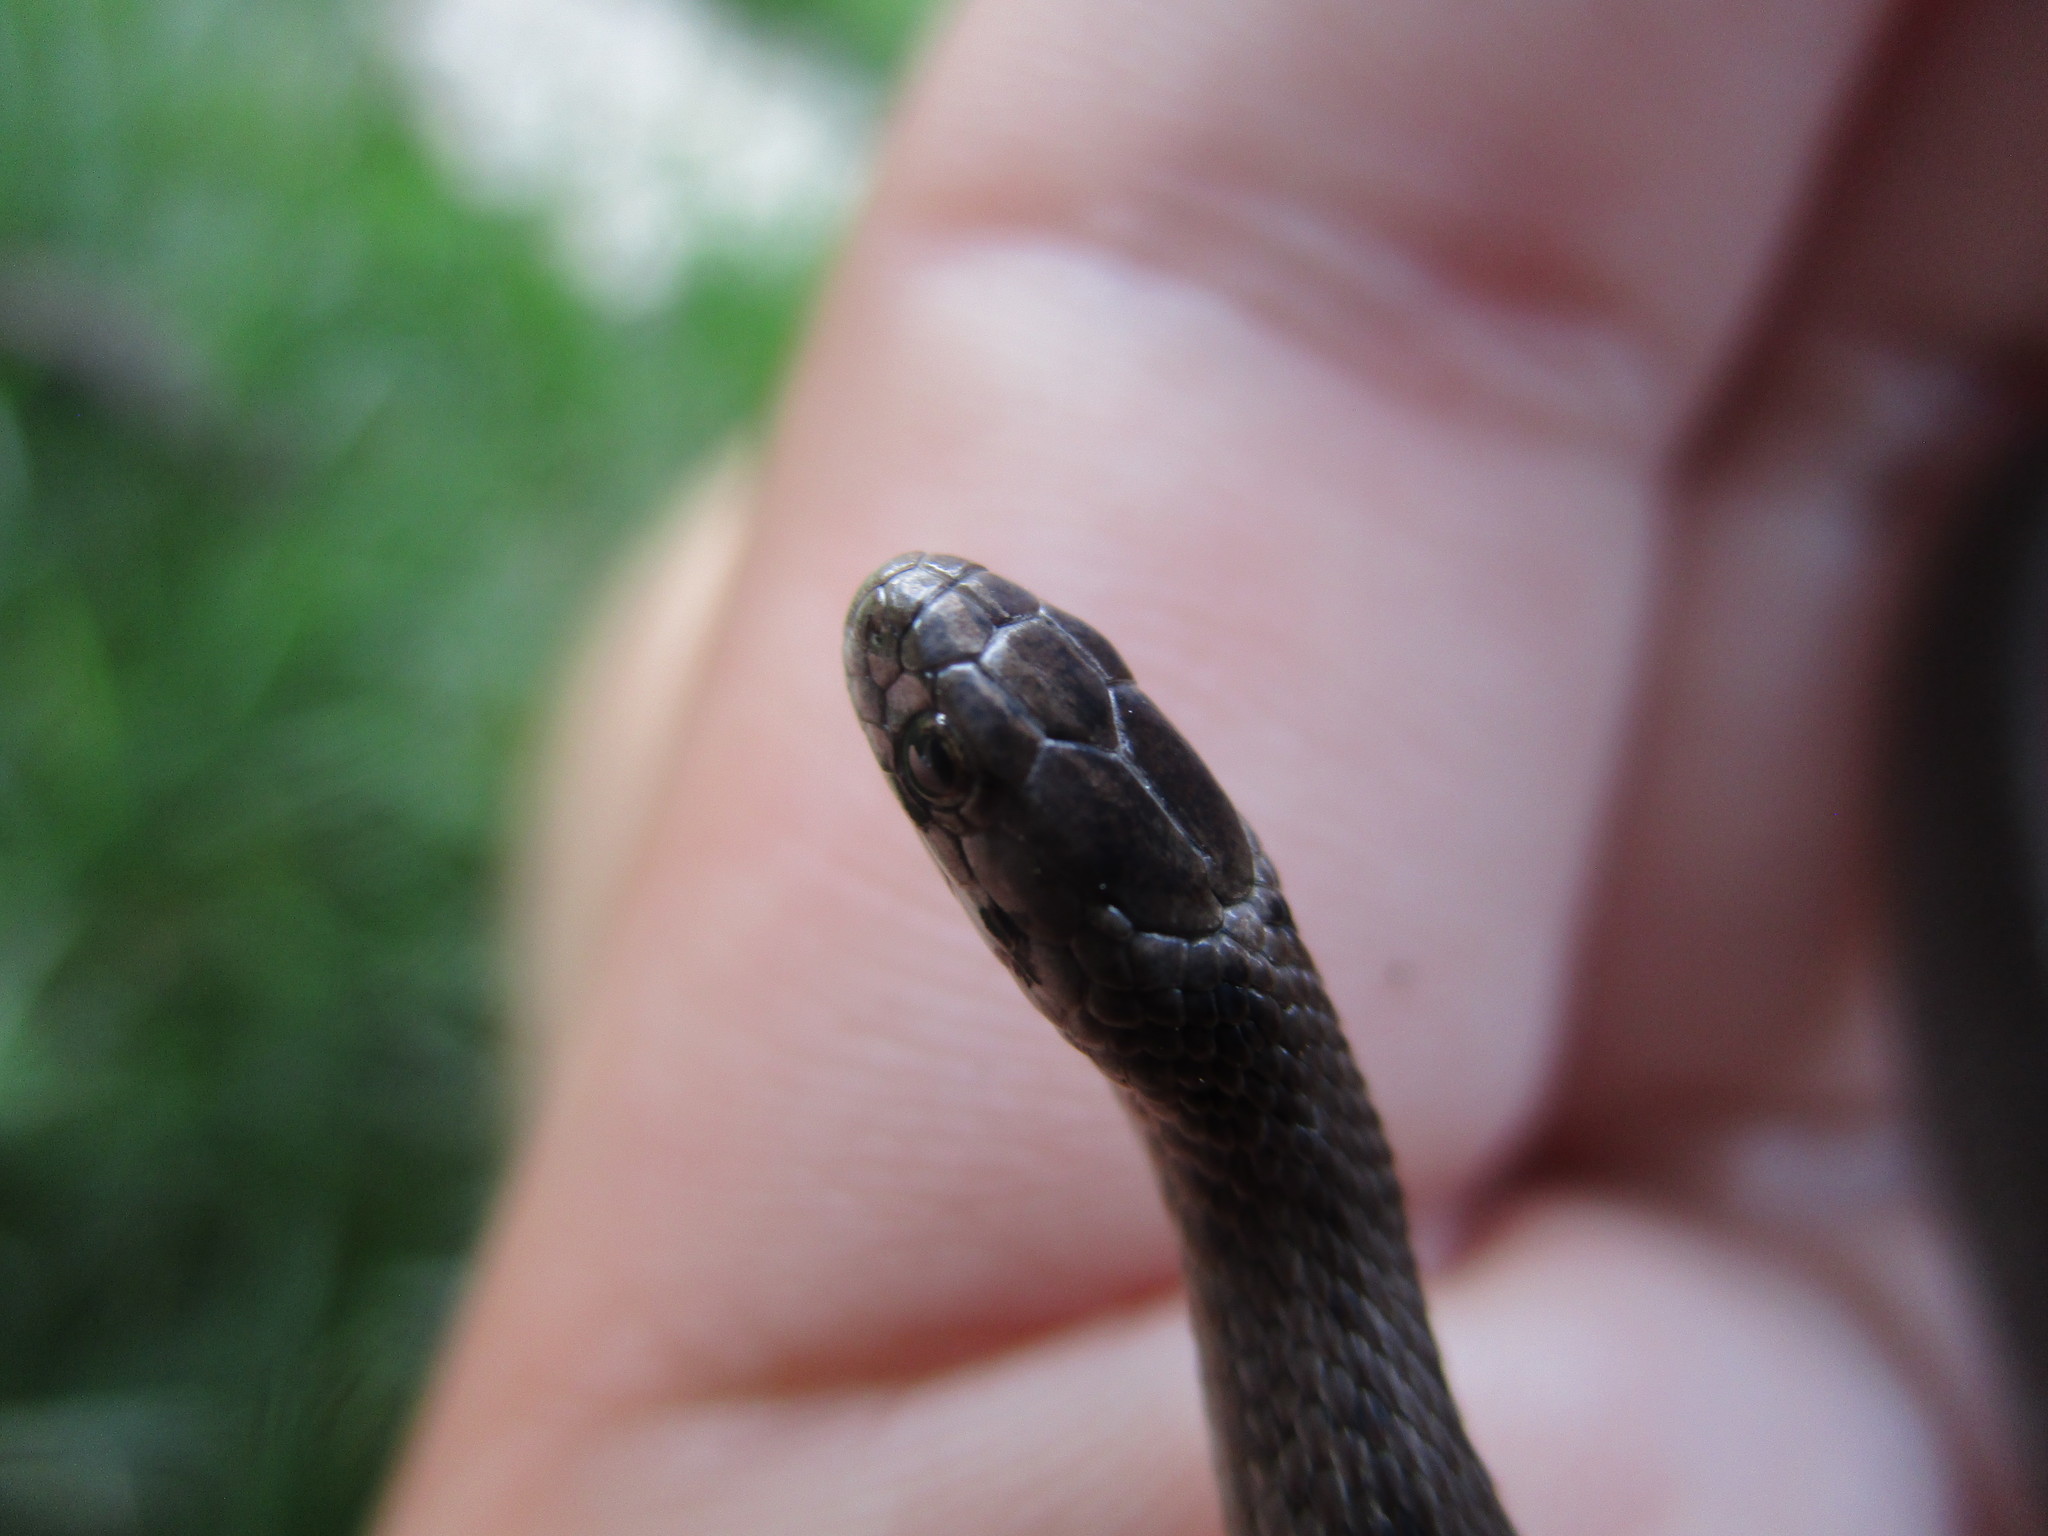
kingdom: Animalia
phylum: Chordata
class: Squamata
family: Colubridae
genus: Storeria
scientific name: Storeria dekayi
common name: (dekay’s) brown snake
